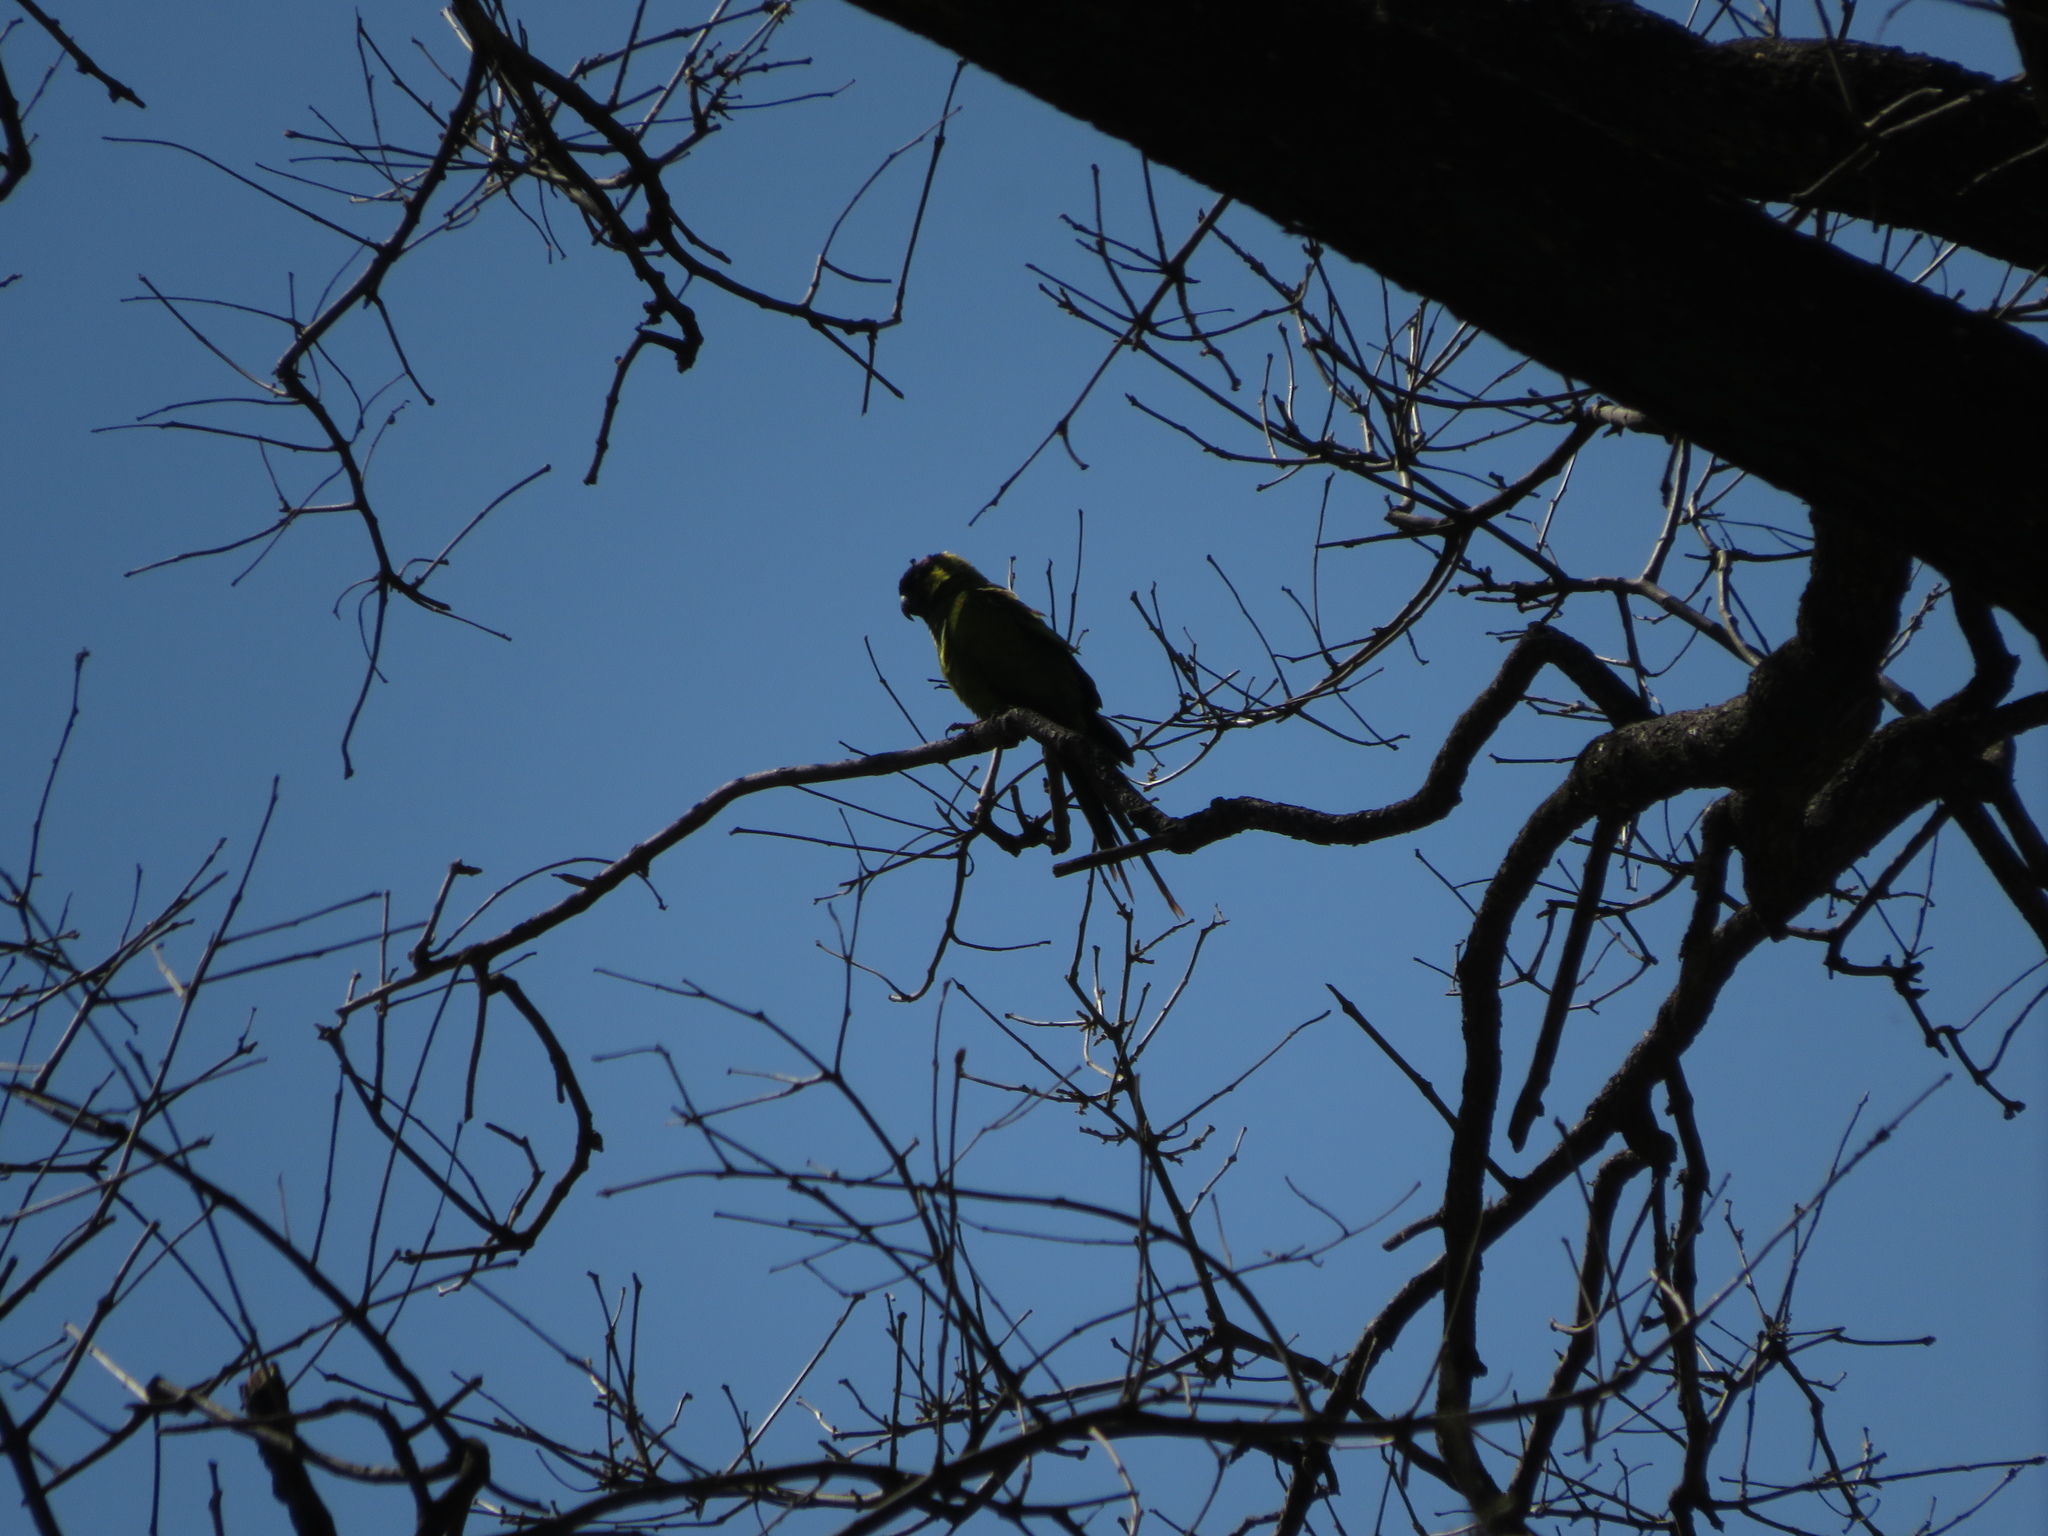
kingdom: Animalia
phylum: Chordata
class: Aves
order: Psittaciformes
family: Psittacidae
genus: Nandayus
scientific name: Nandayus nenday
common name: Nanday parakeet
